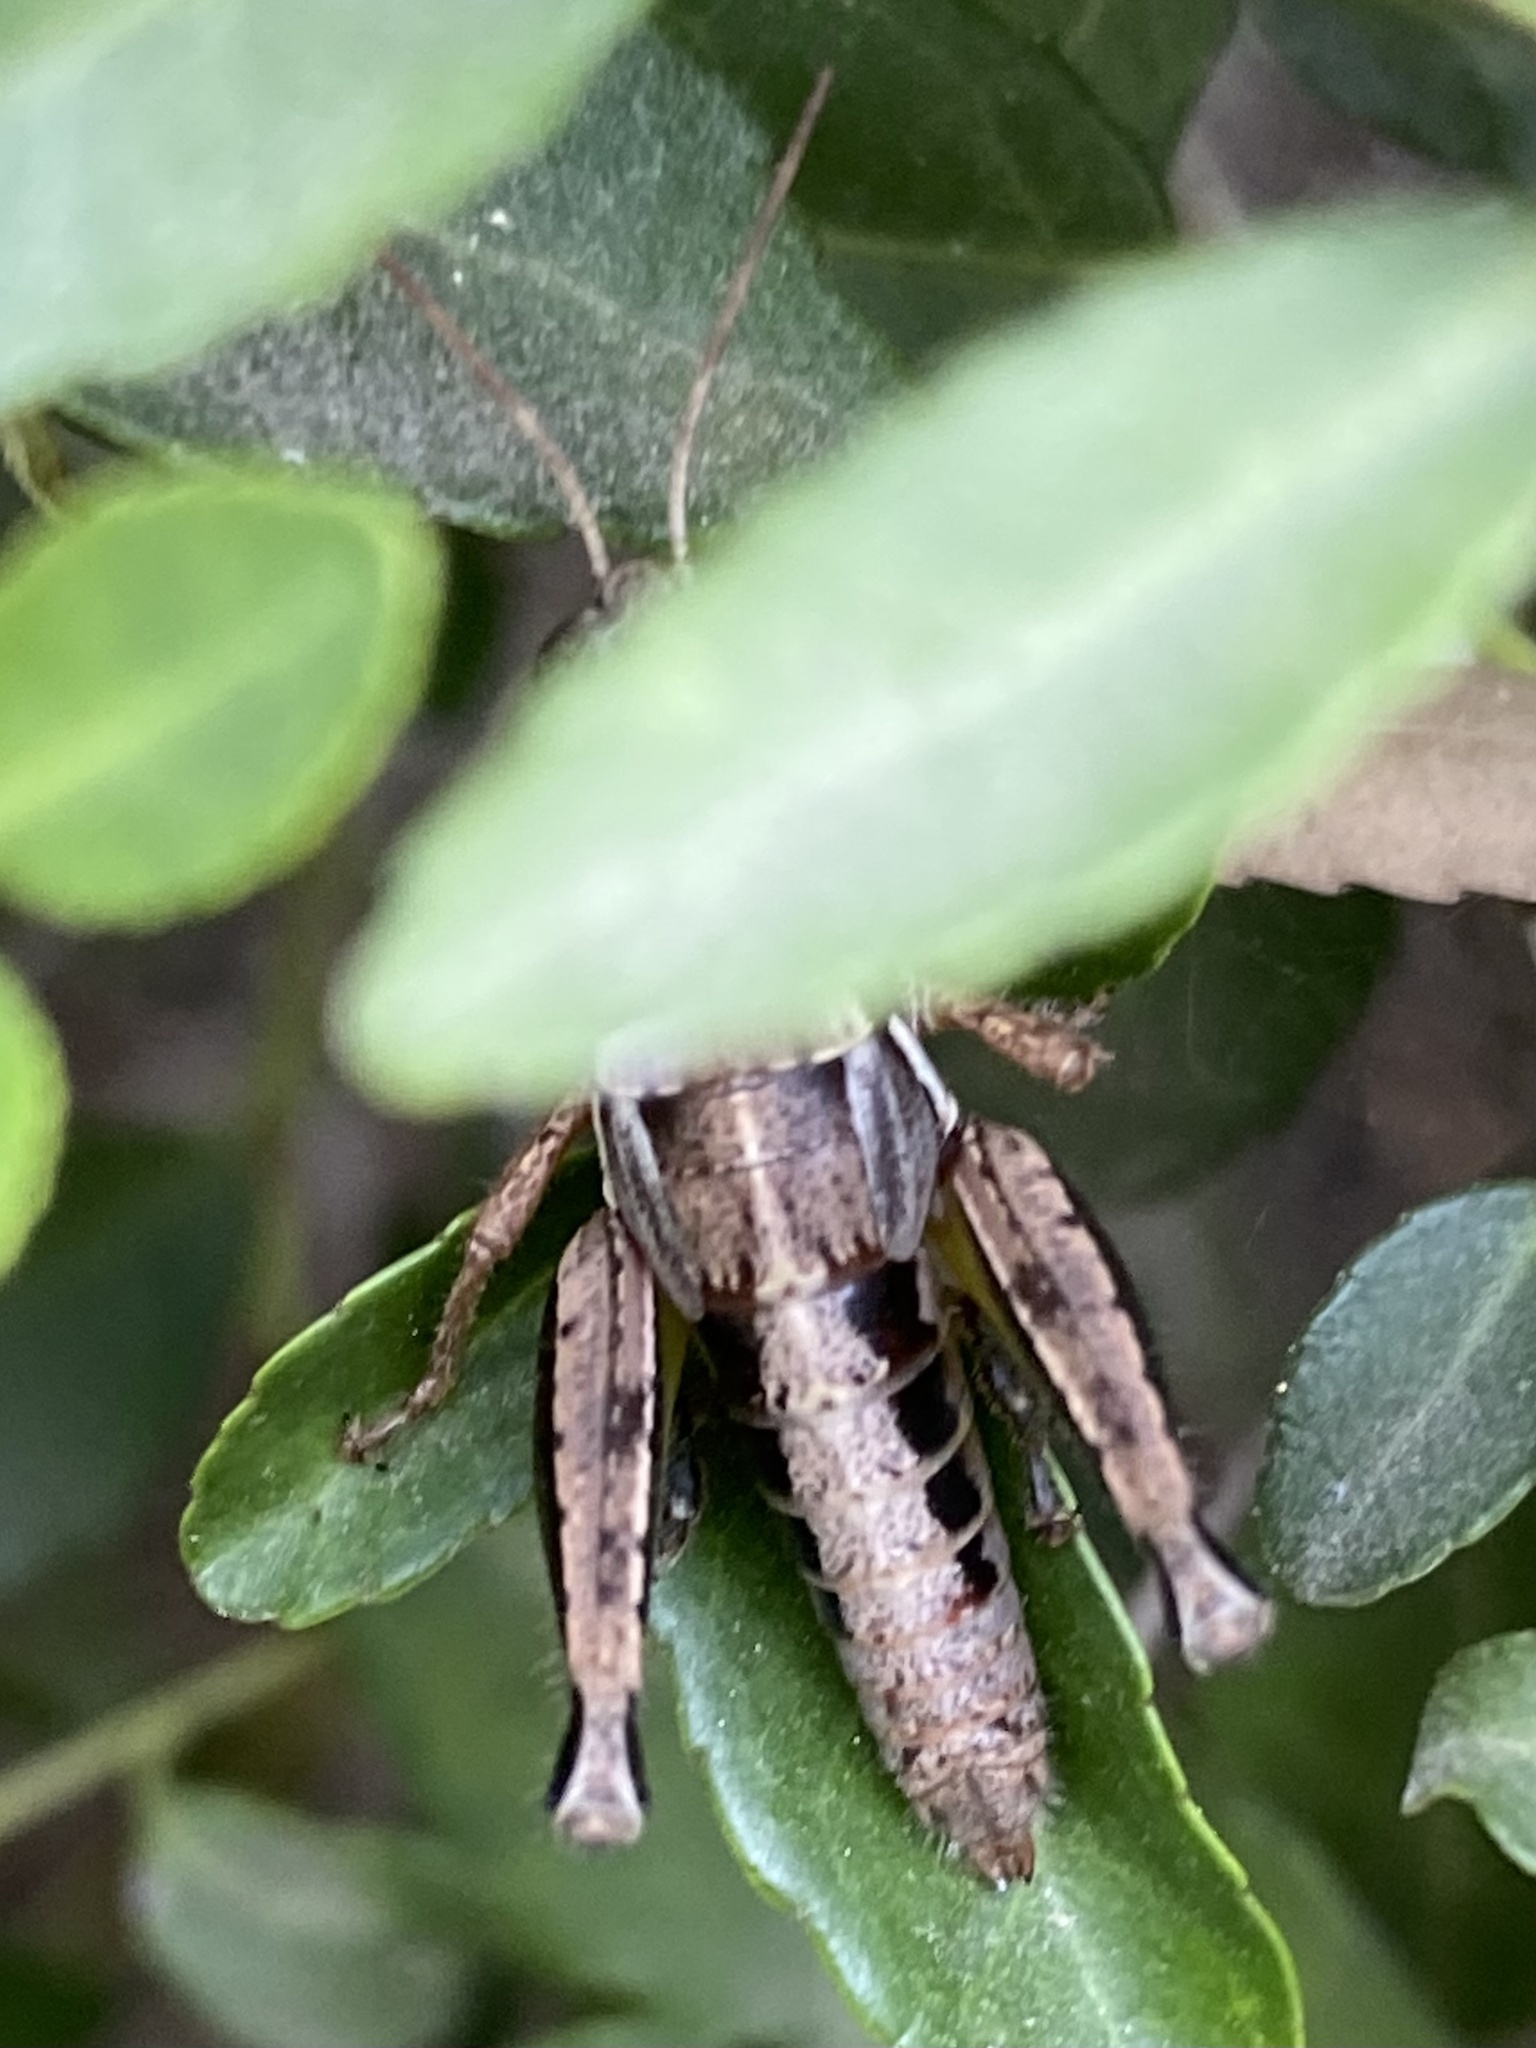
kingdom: Animalia
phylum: Arthropoda
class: Insecta
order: Orthoptera
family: Acrididae
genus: Phaedrotettix
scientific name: Phaedrotettix
